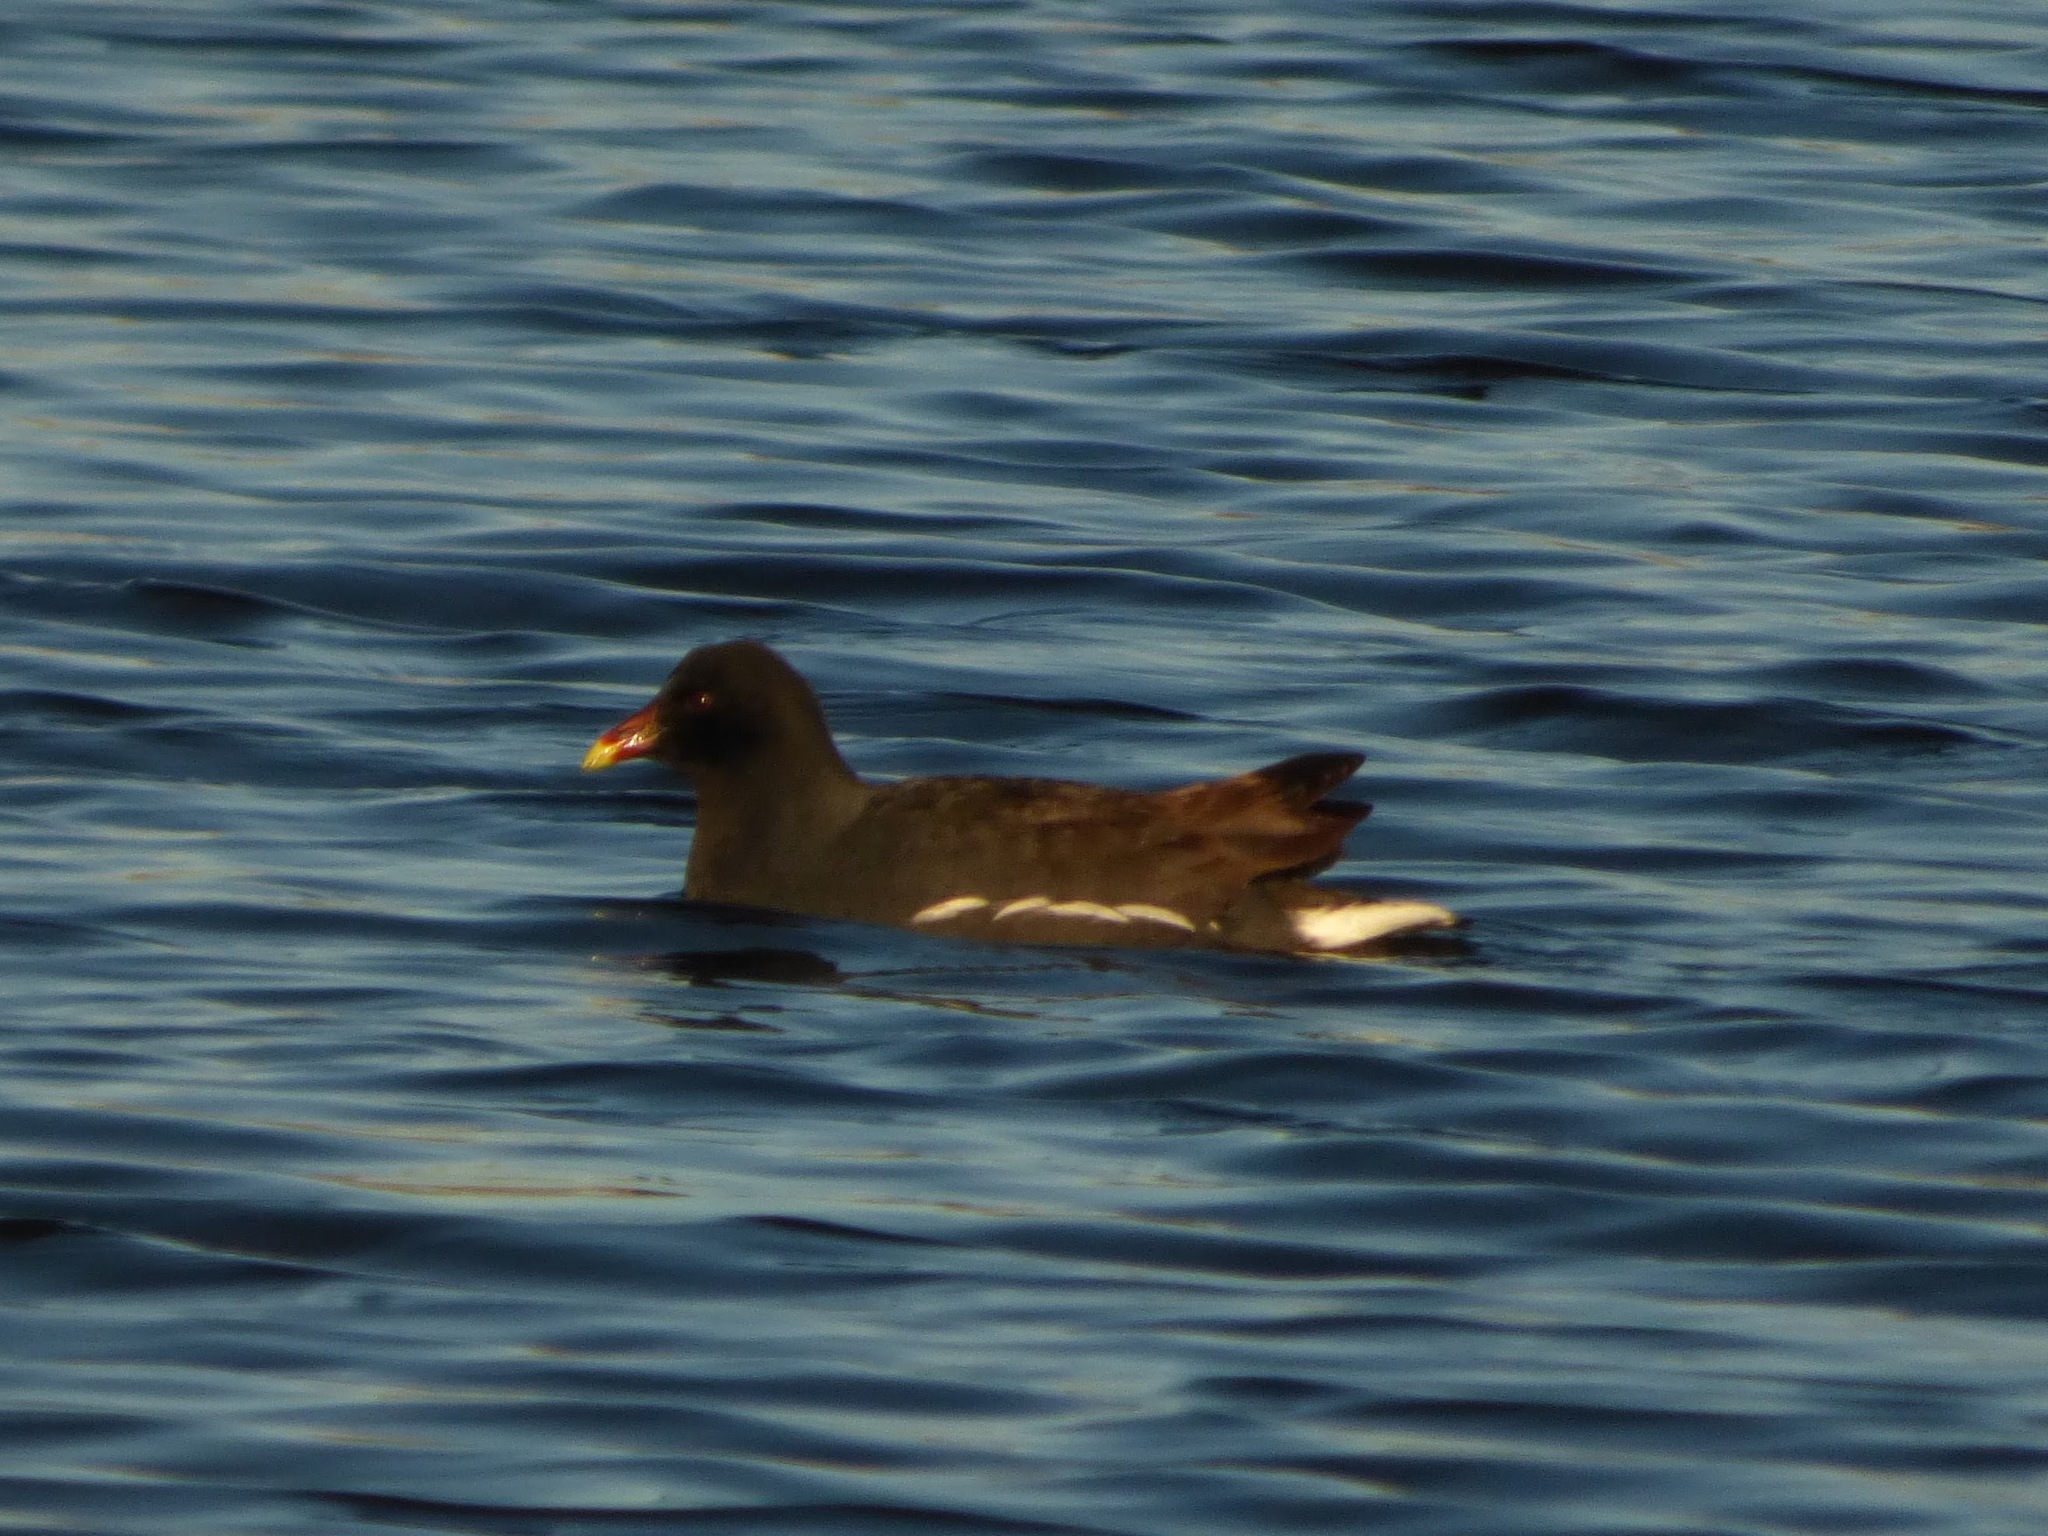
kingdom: Animalia
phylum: Chordata
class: Aves
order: Gruiformes
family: Rallidae
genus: Gallinula
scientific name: Gallinula chloropus
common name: Common moorhen
